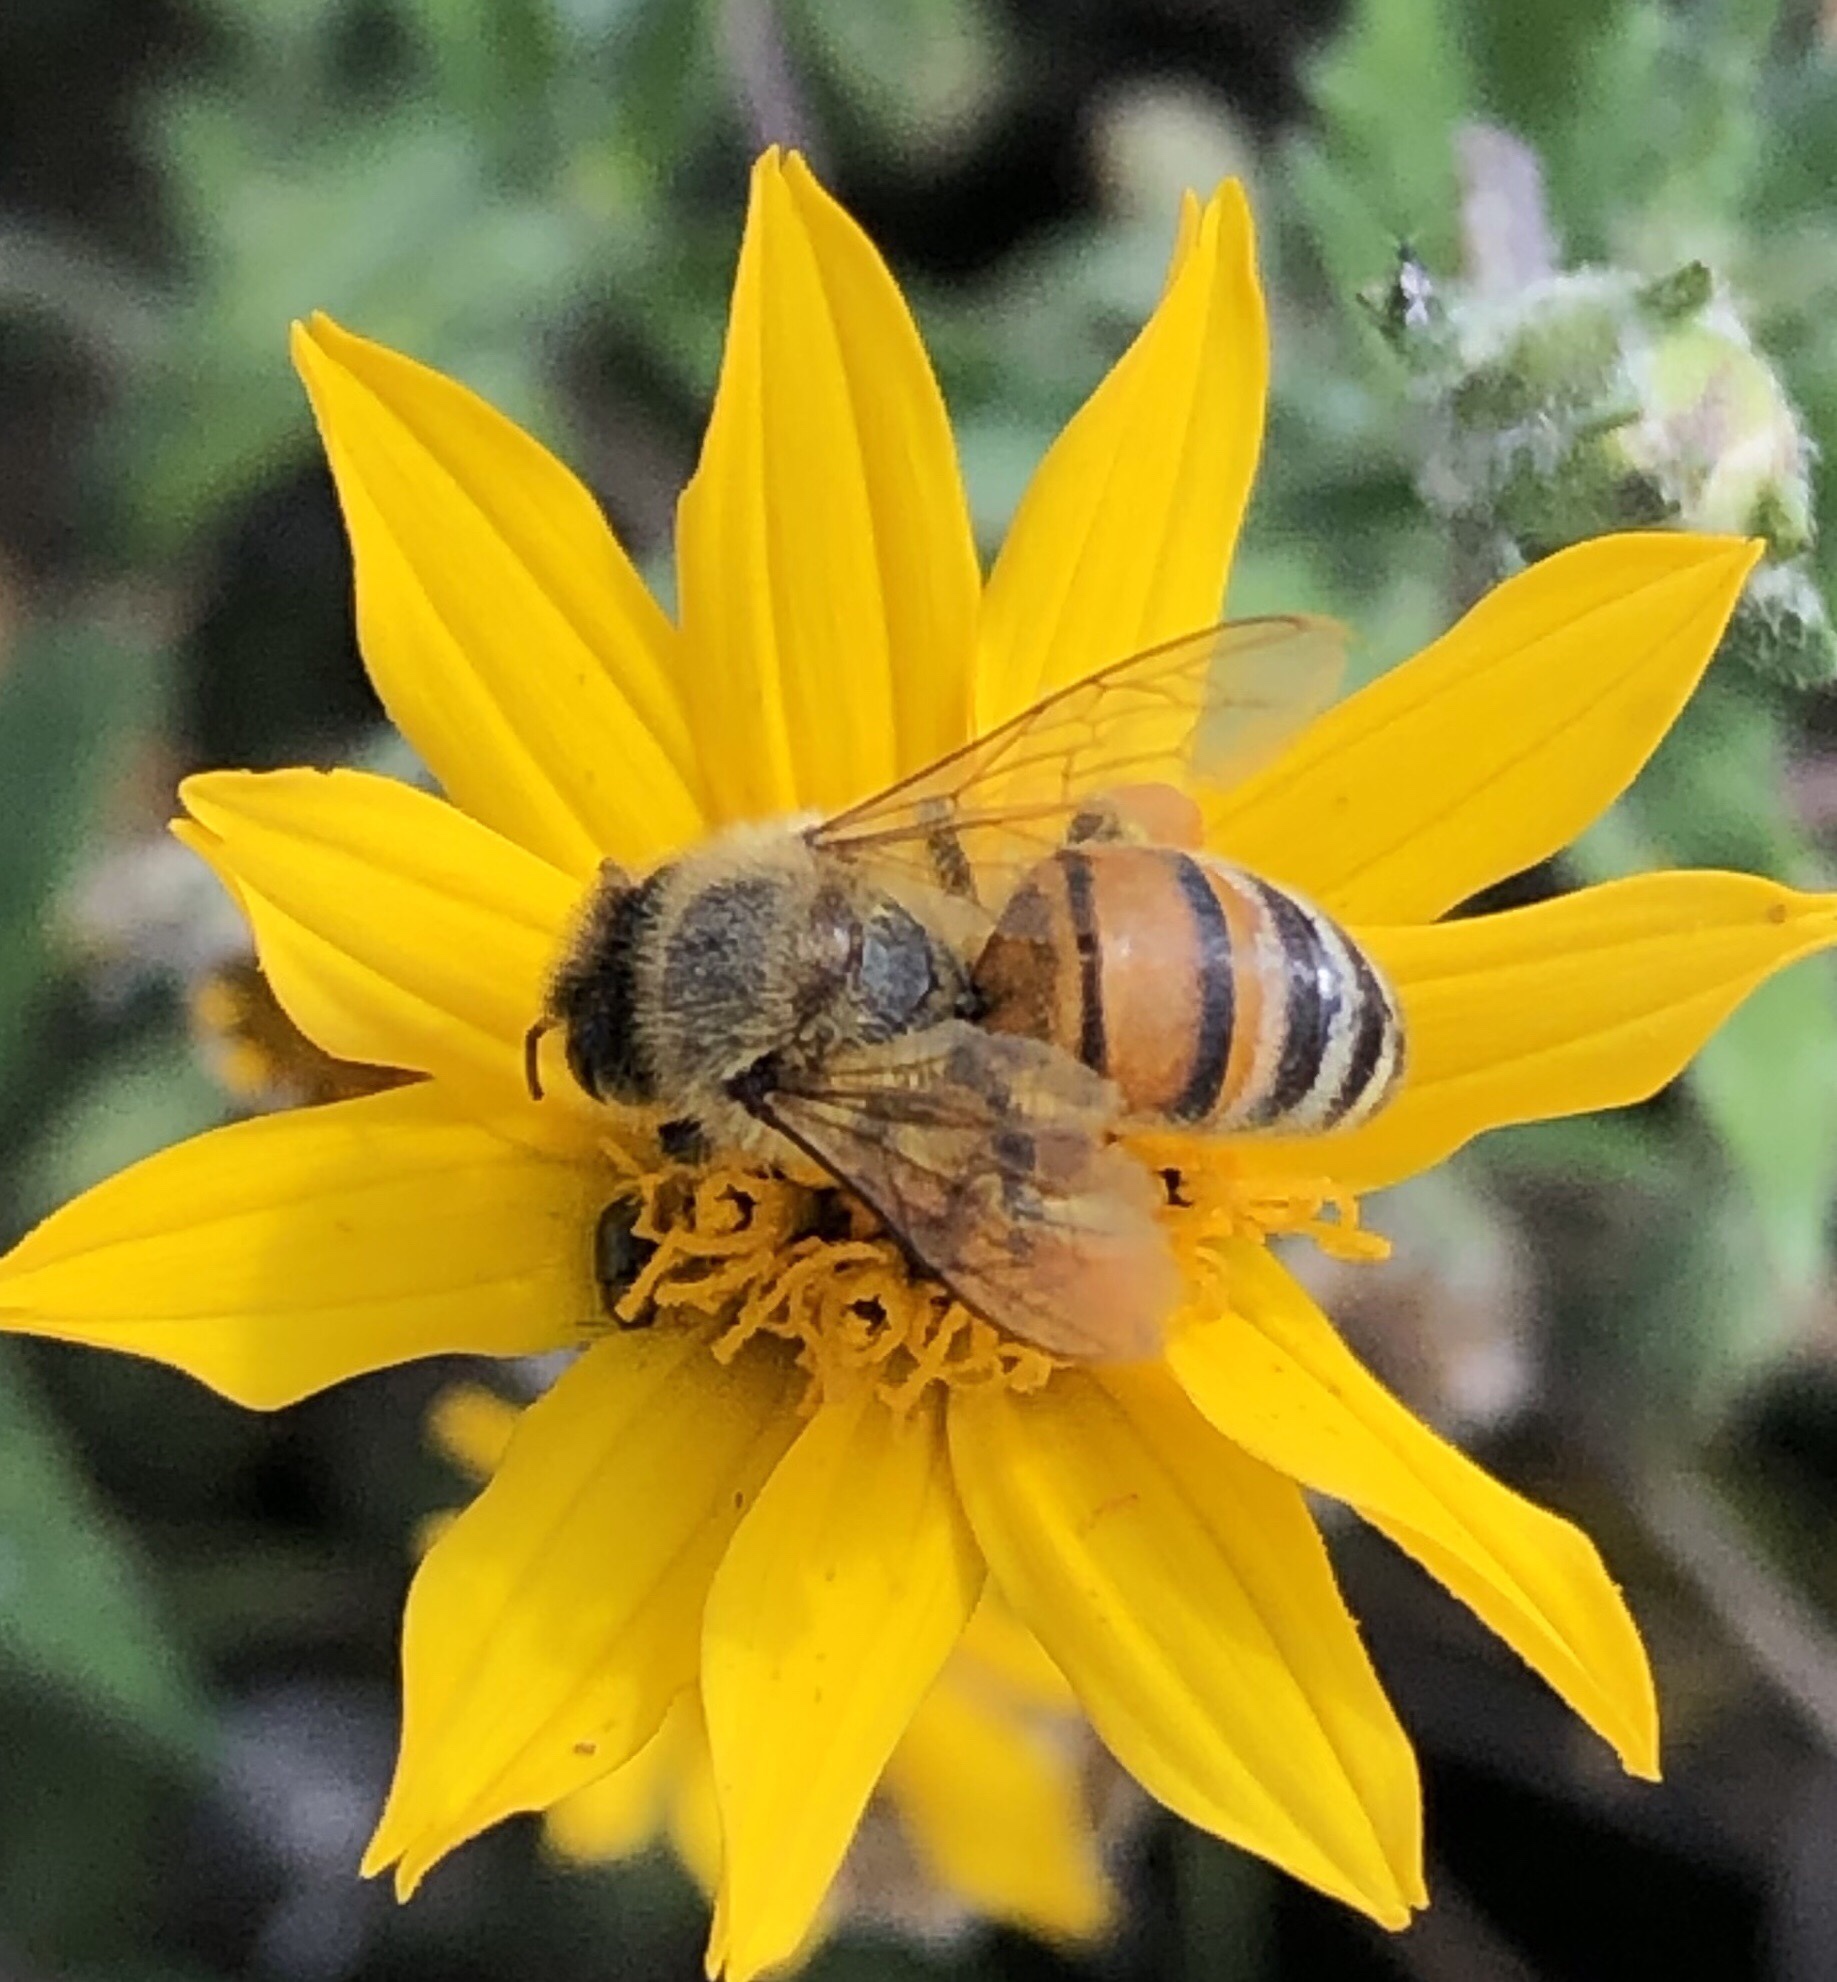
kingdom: Animalia
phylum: Arthropoda
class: Insecta
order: Hymenoptera
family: Apidae
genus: Apis
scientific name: Apis mellifera
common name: Honey bee
